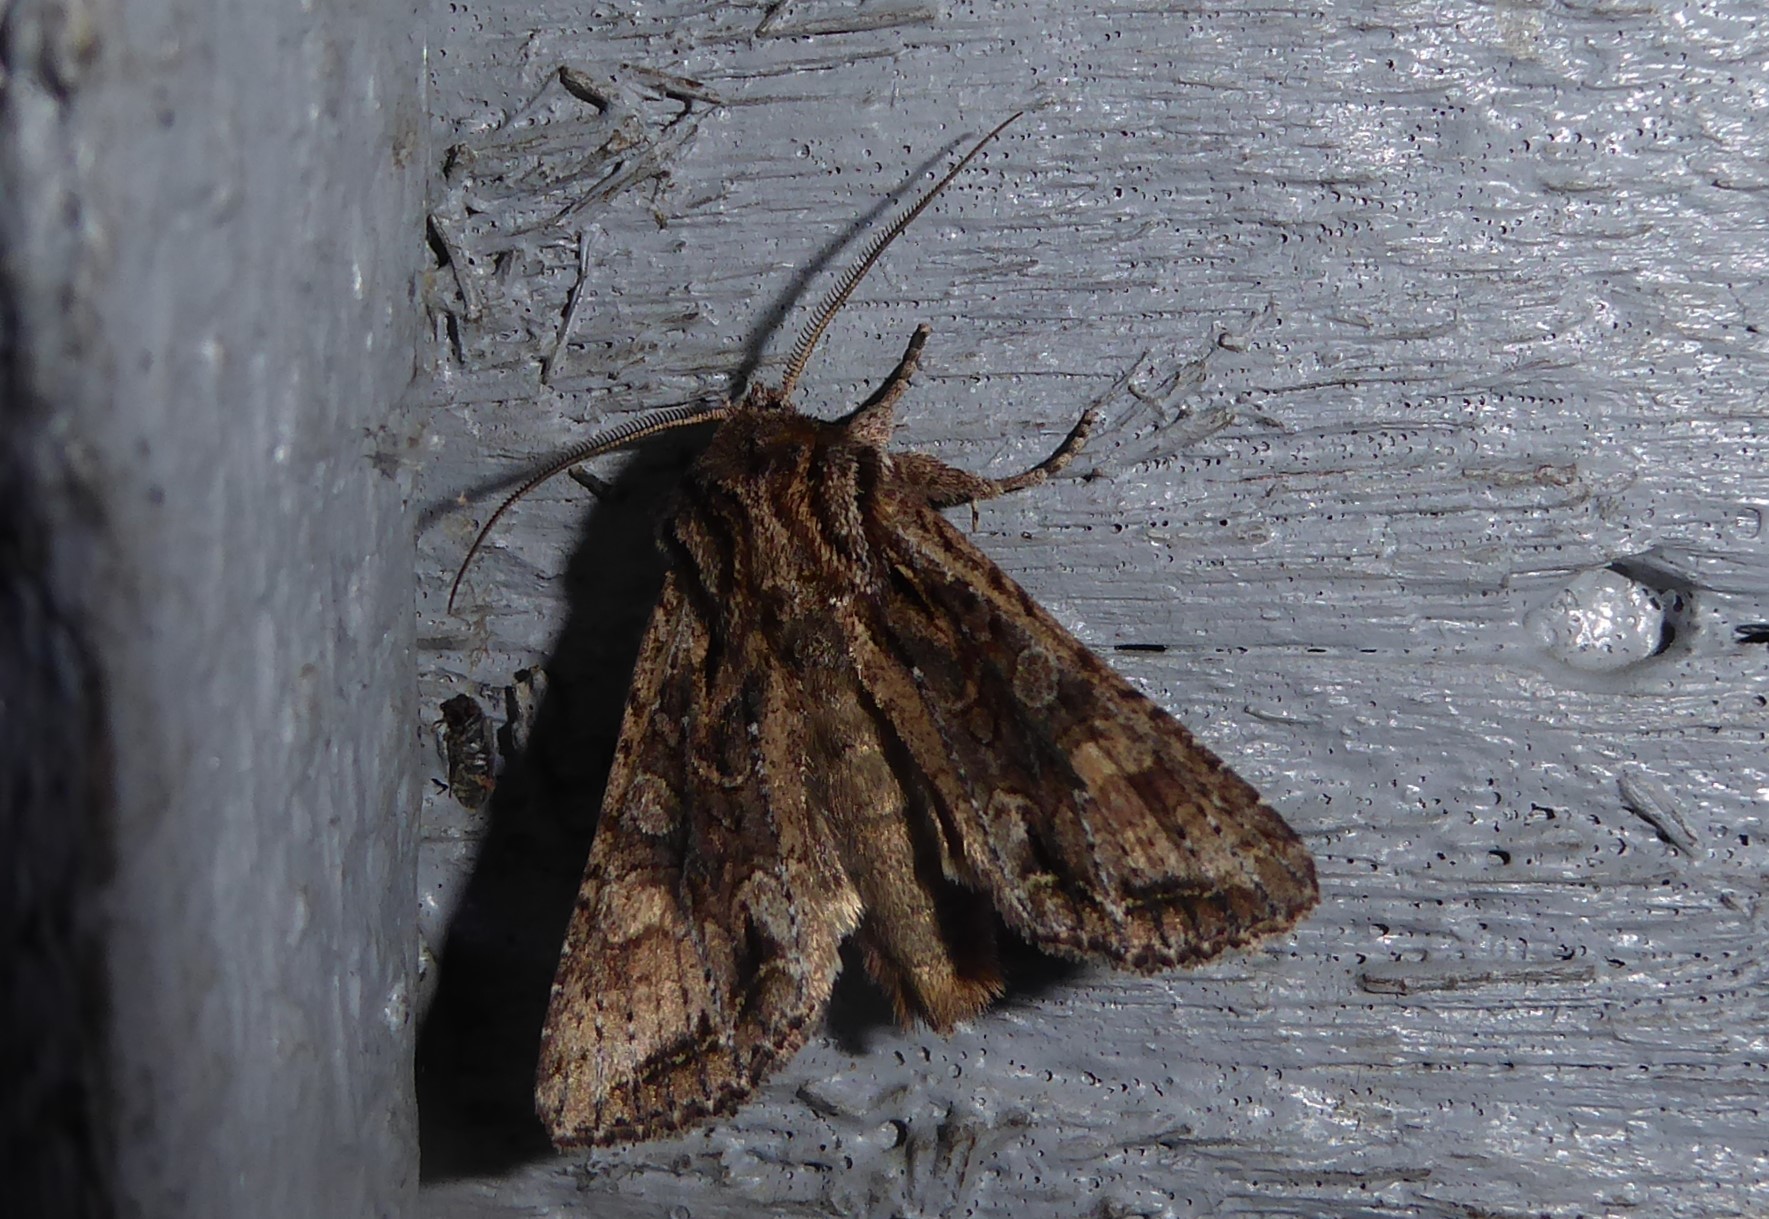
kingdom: Animalia
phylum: Arthropoda
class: Insecta
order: Lepidoptera
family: Noctuidae
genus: Ichneutica
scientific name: Ichneutica mutans
